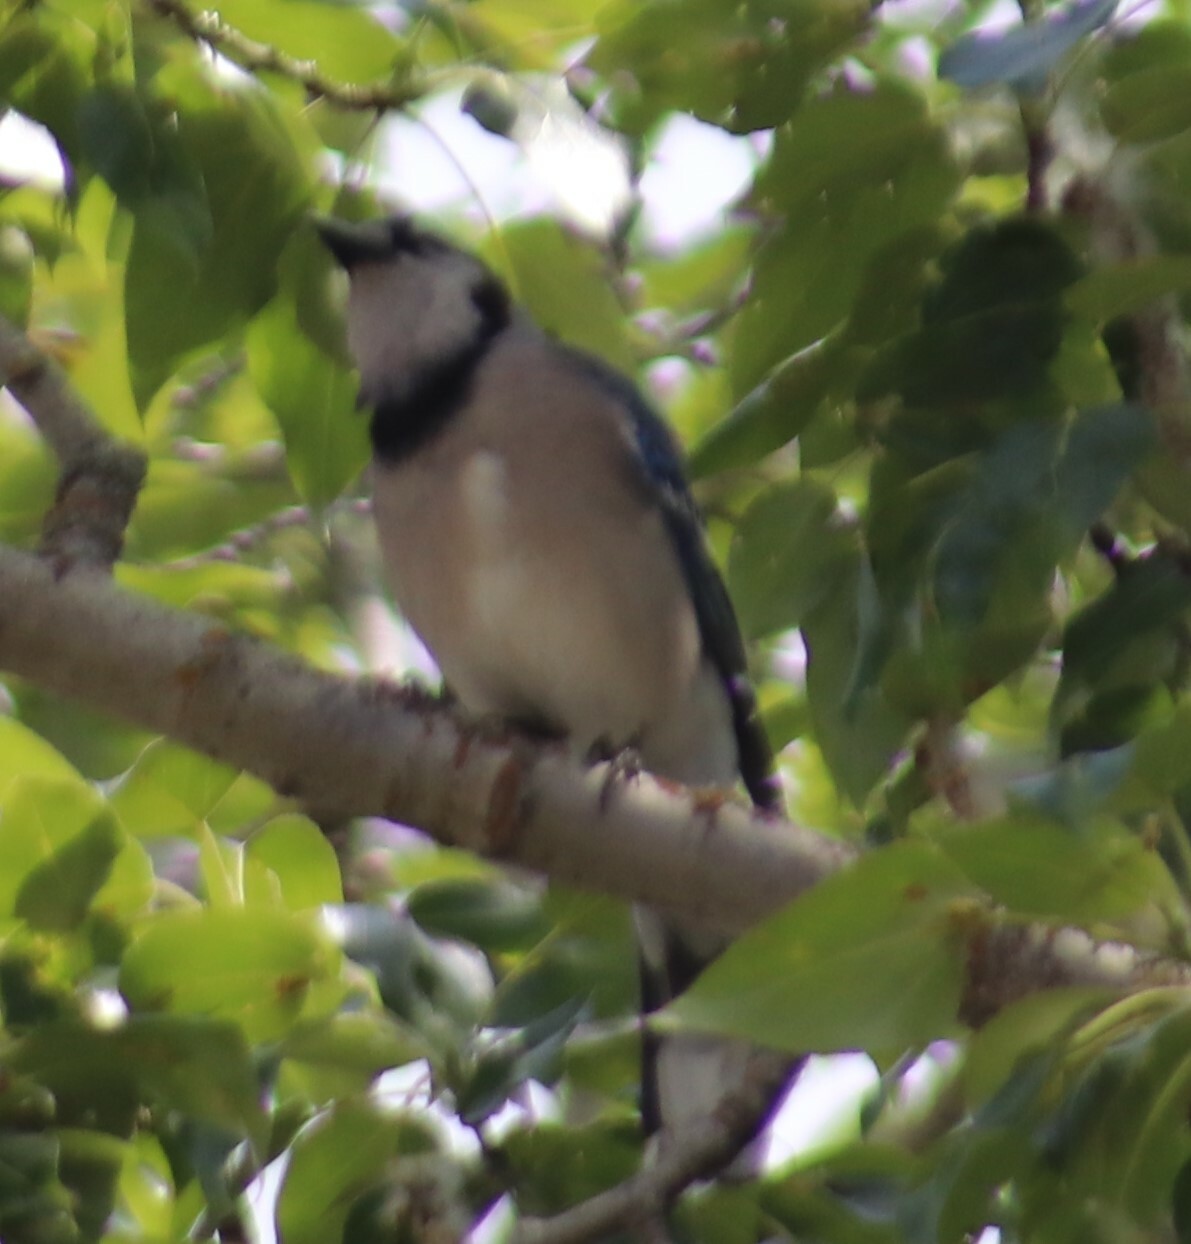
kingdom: Animalia
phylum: Chordata
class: Aves
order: Passeriformes
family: Corvidae
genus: Cyanocitta
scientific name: Cyanocitta cristata
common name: Blue jay
